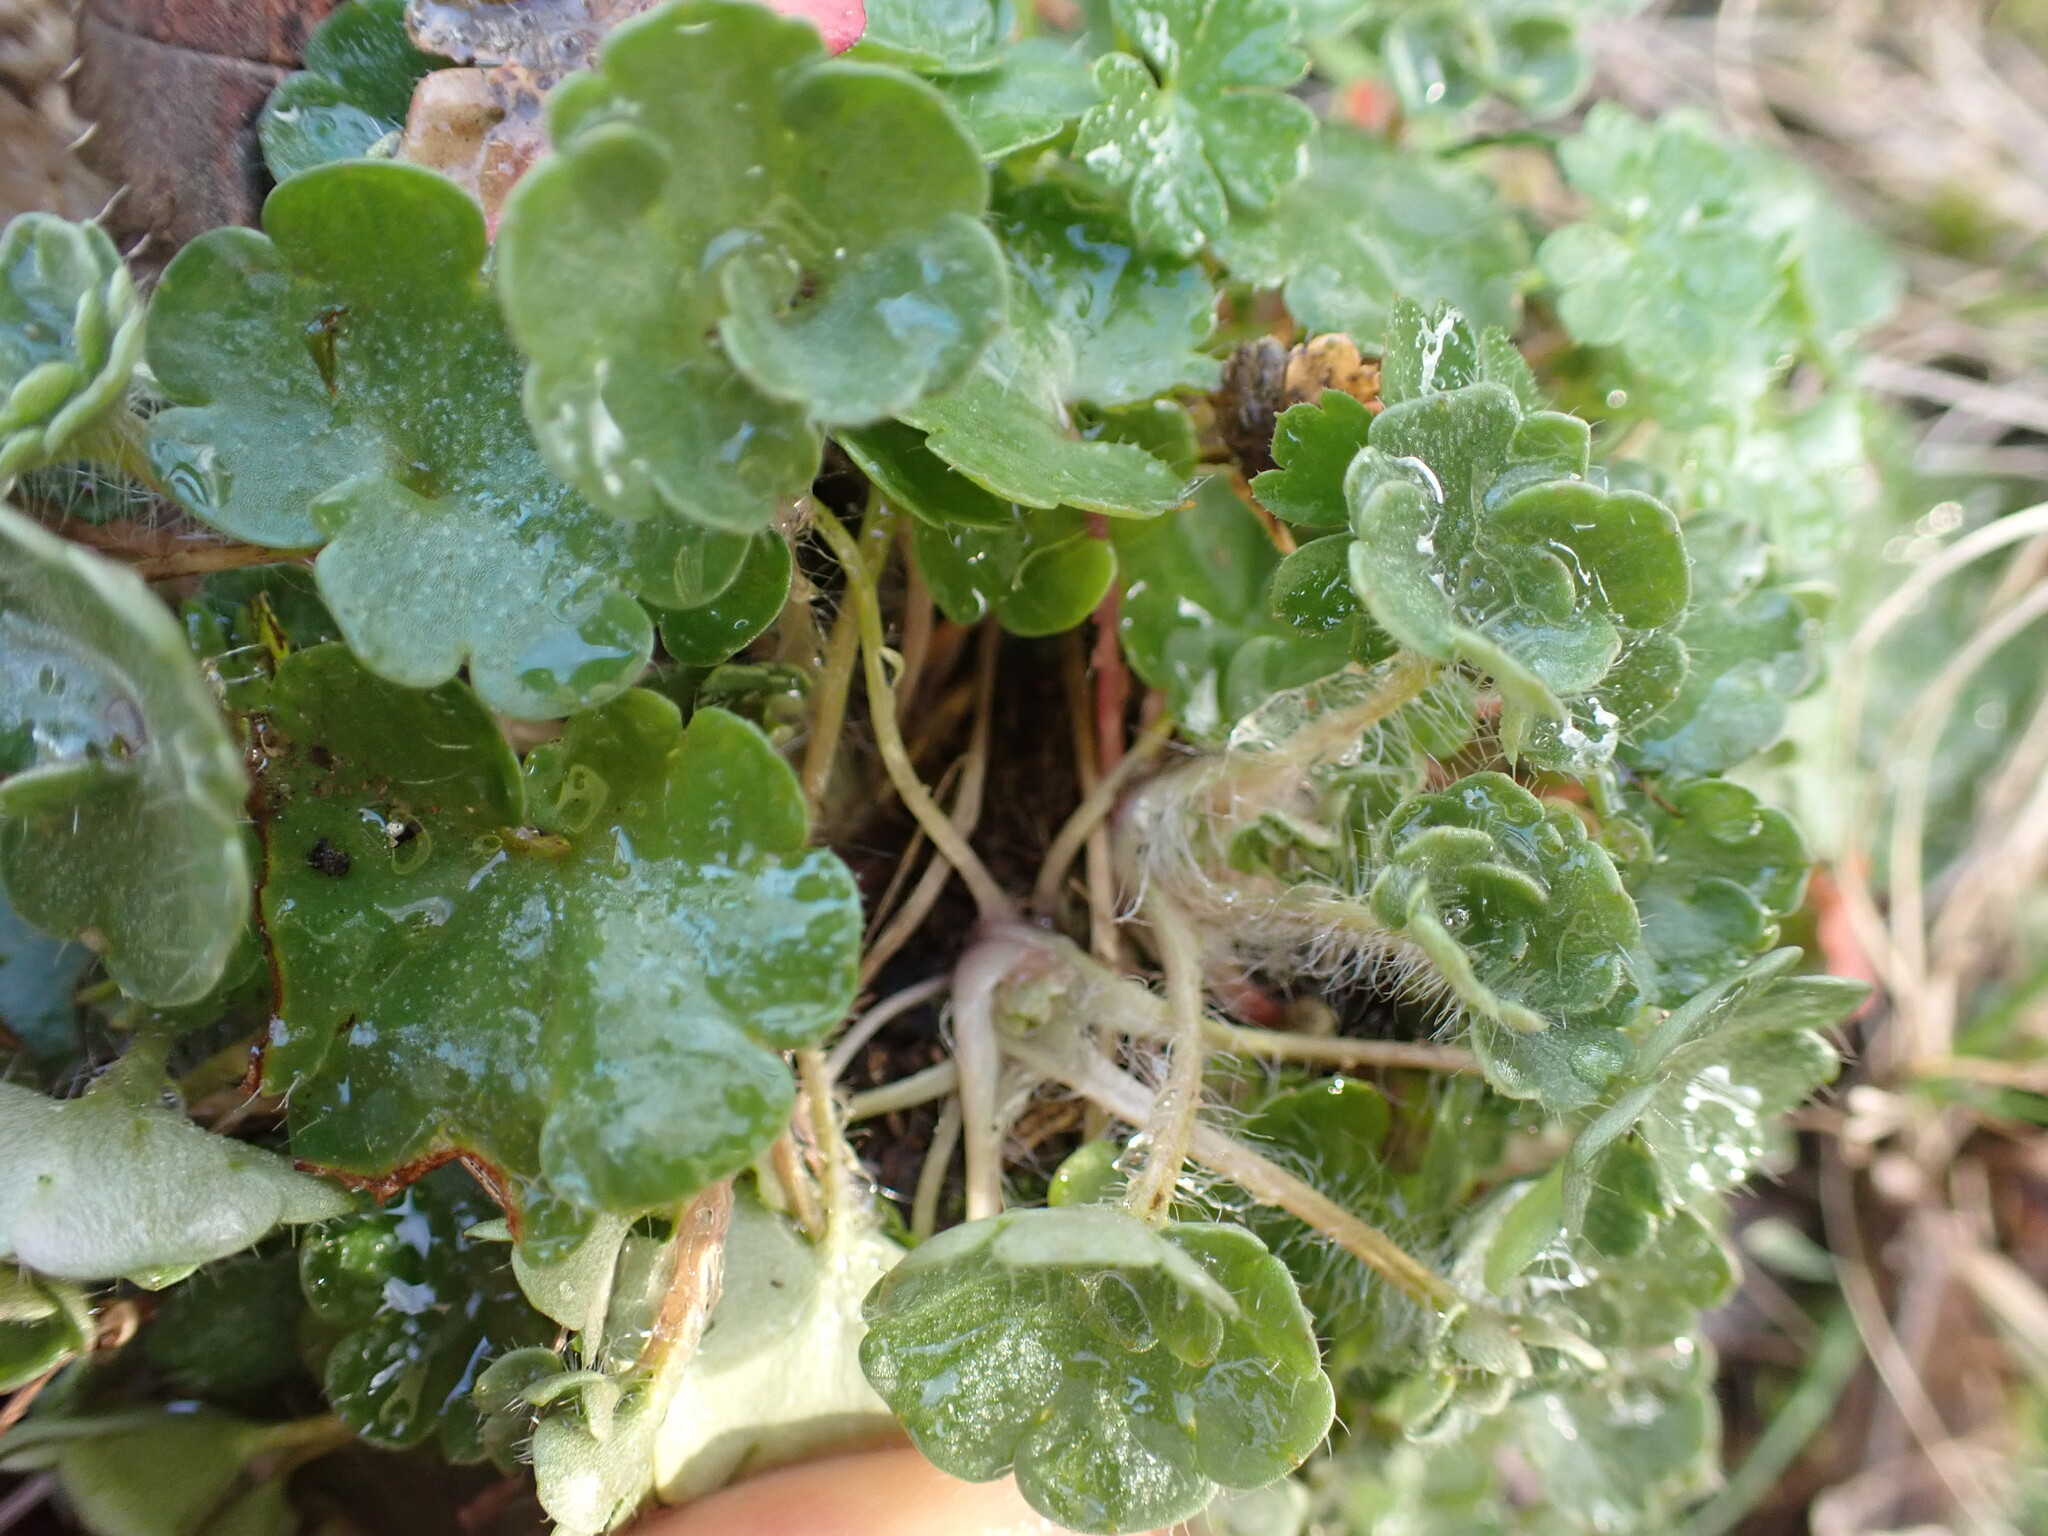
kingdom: Plantae
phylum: Tracheophyta
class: Magnoliopsida
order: Saxifragales
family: Saxifragaceae
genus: Saxifraga
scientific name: Saxifraga granulata
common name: Meadow saxifrage
